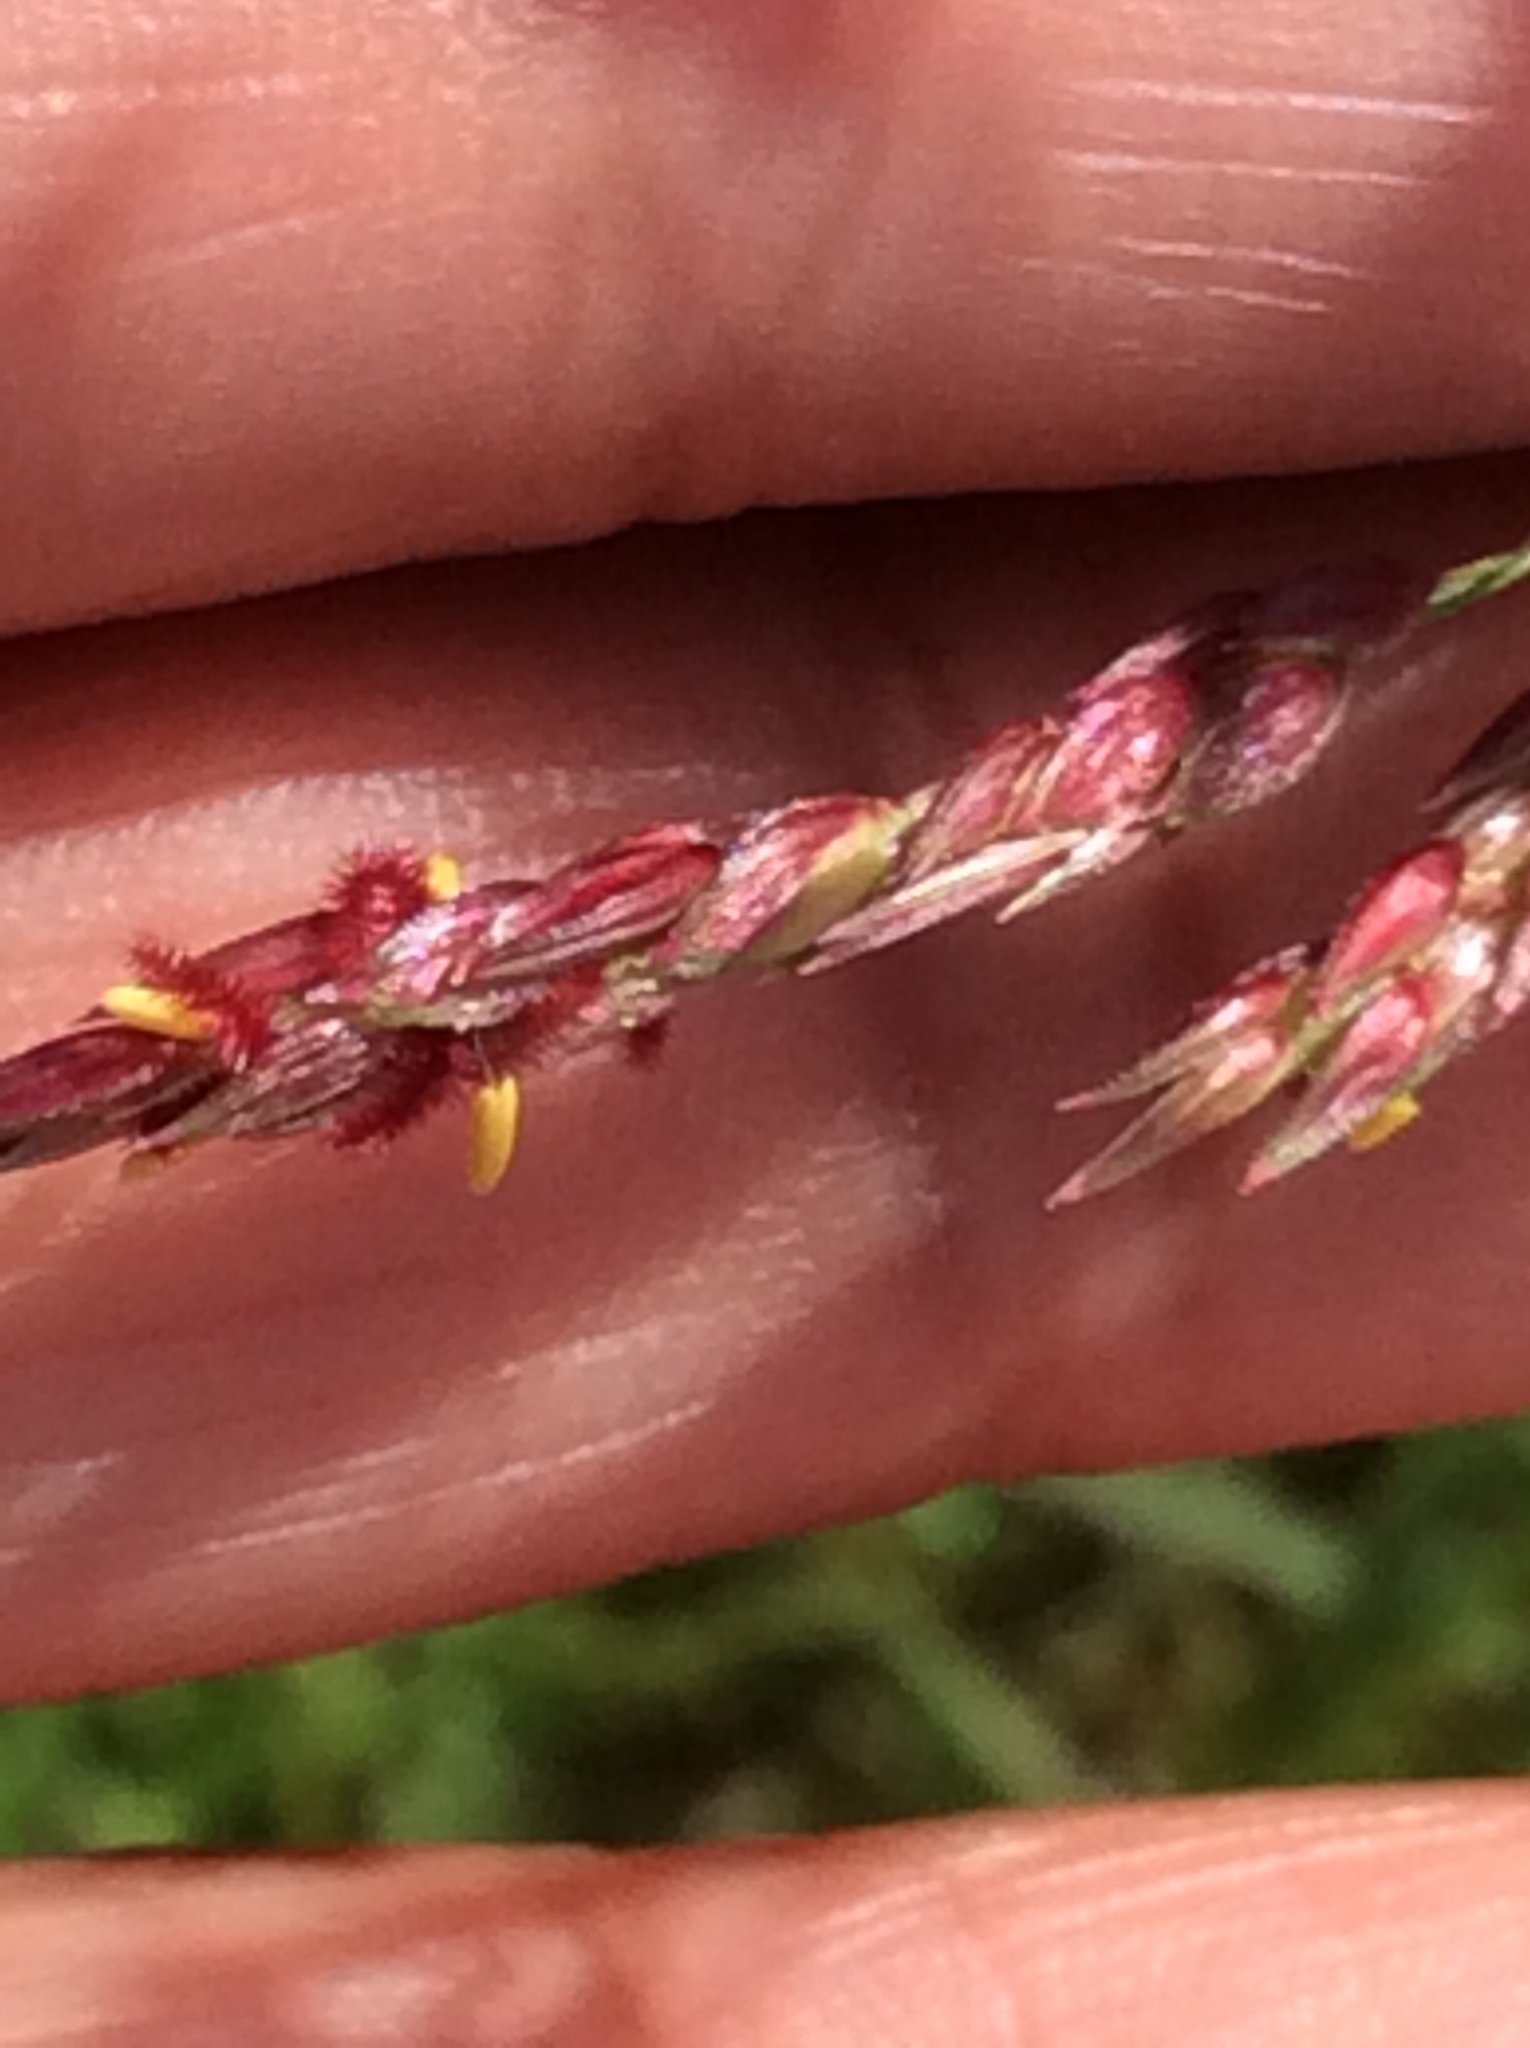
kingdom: Plantae
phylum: Tracheophyta
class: Liliopsida
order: Poales
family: Poaceae
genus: Sorghum
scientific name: Sorghum halepense
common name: Johnson-grass
